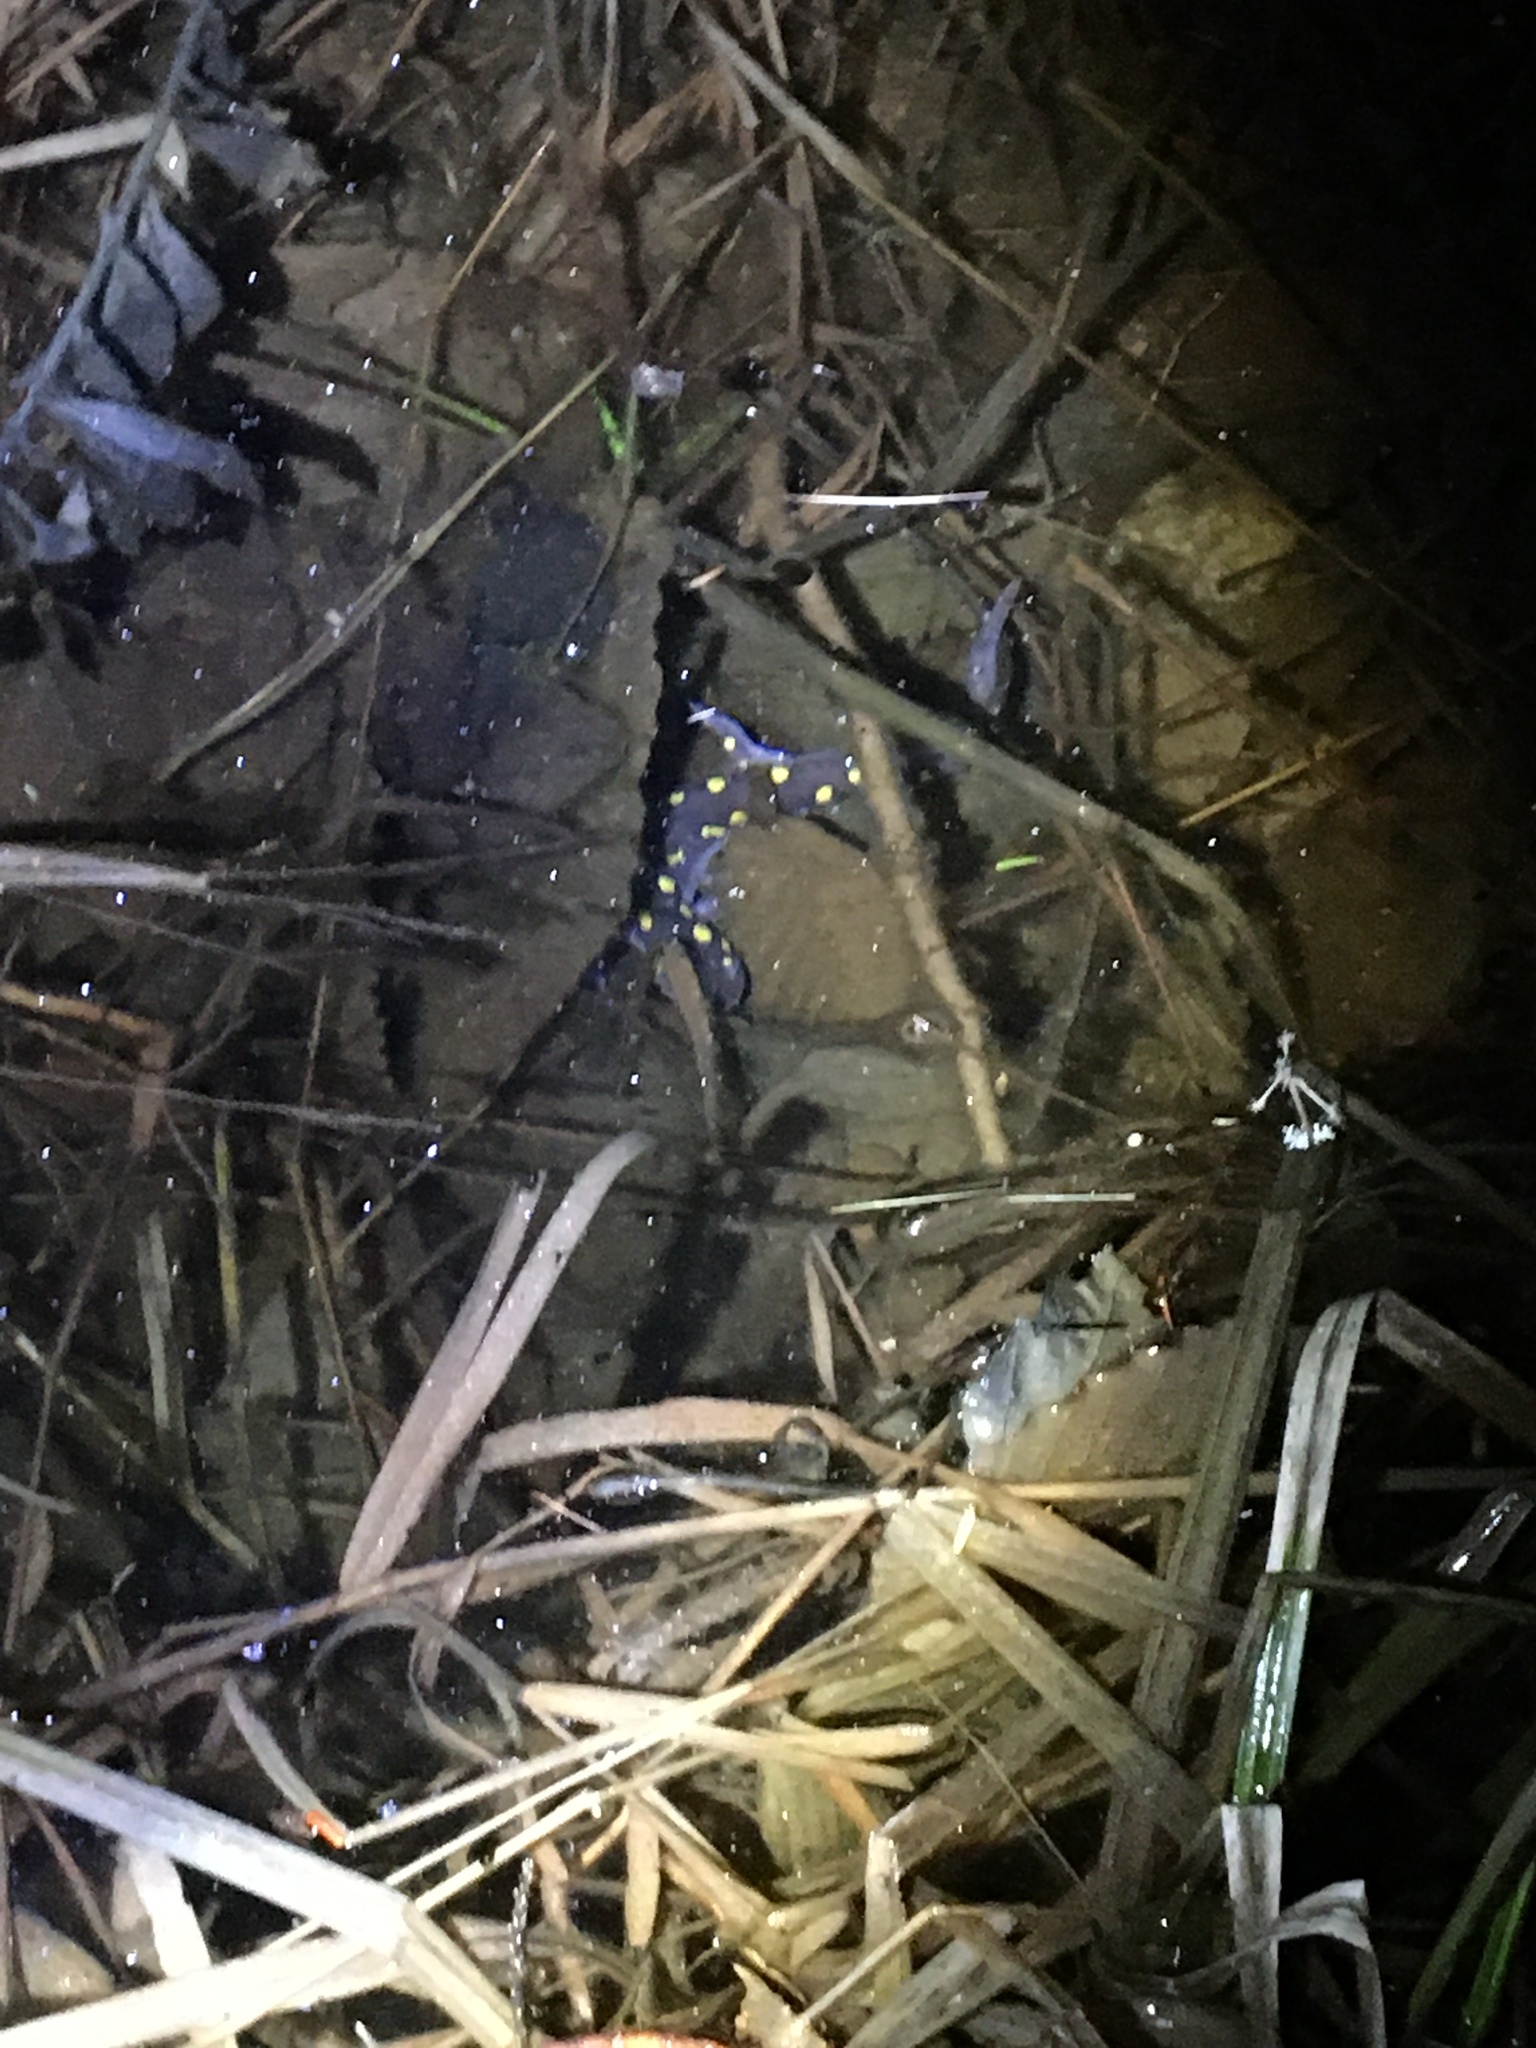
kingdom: Animalia
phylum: Chordata
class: Amphibia
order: Caudata
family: Ambystomatidae
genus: Ambystoma
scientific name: Ambystoma maculatum
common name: Spotted salamander
